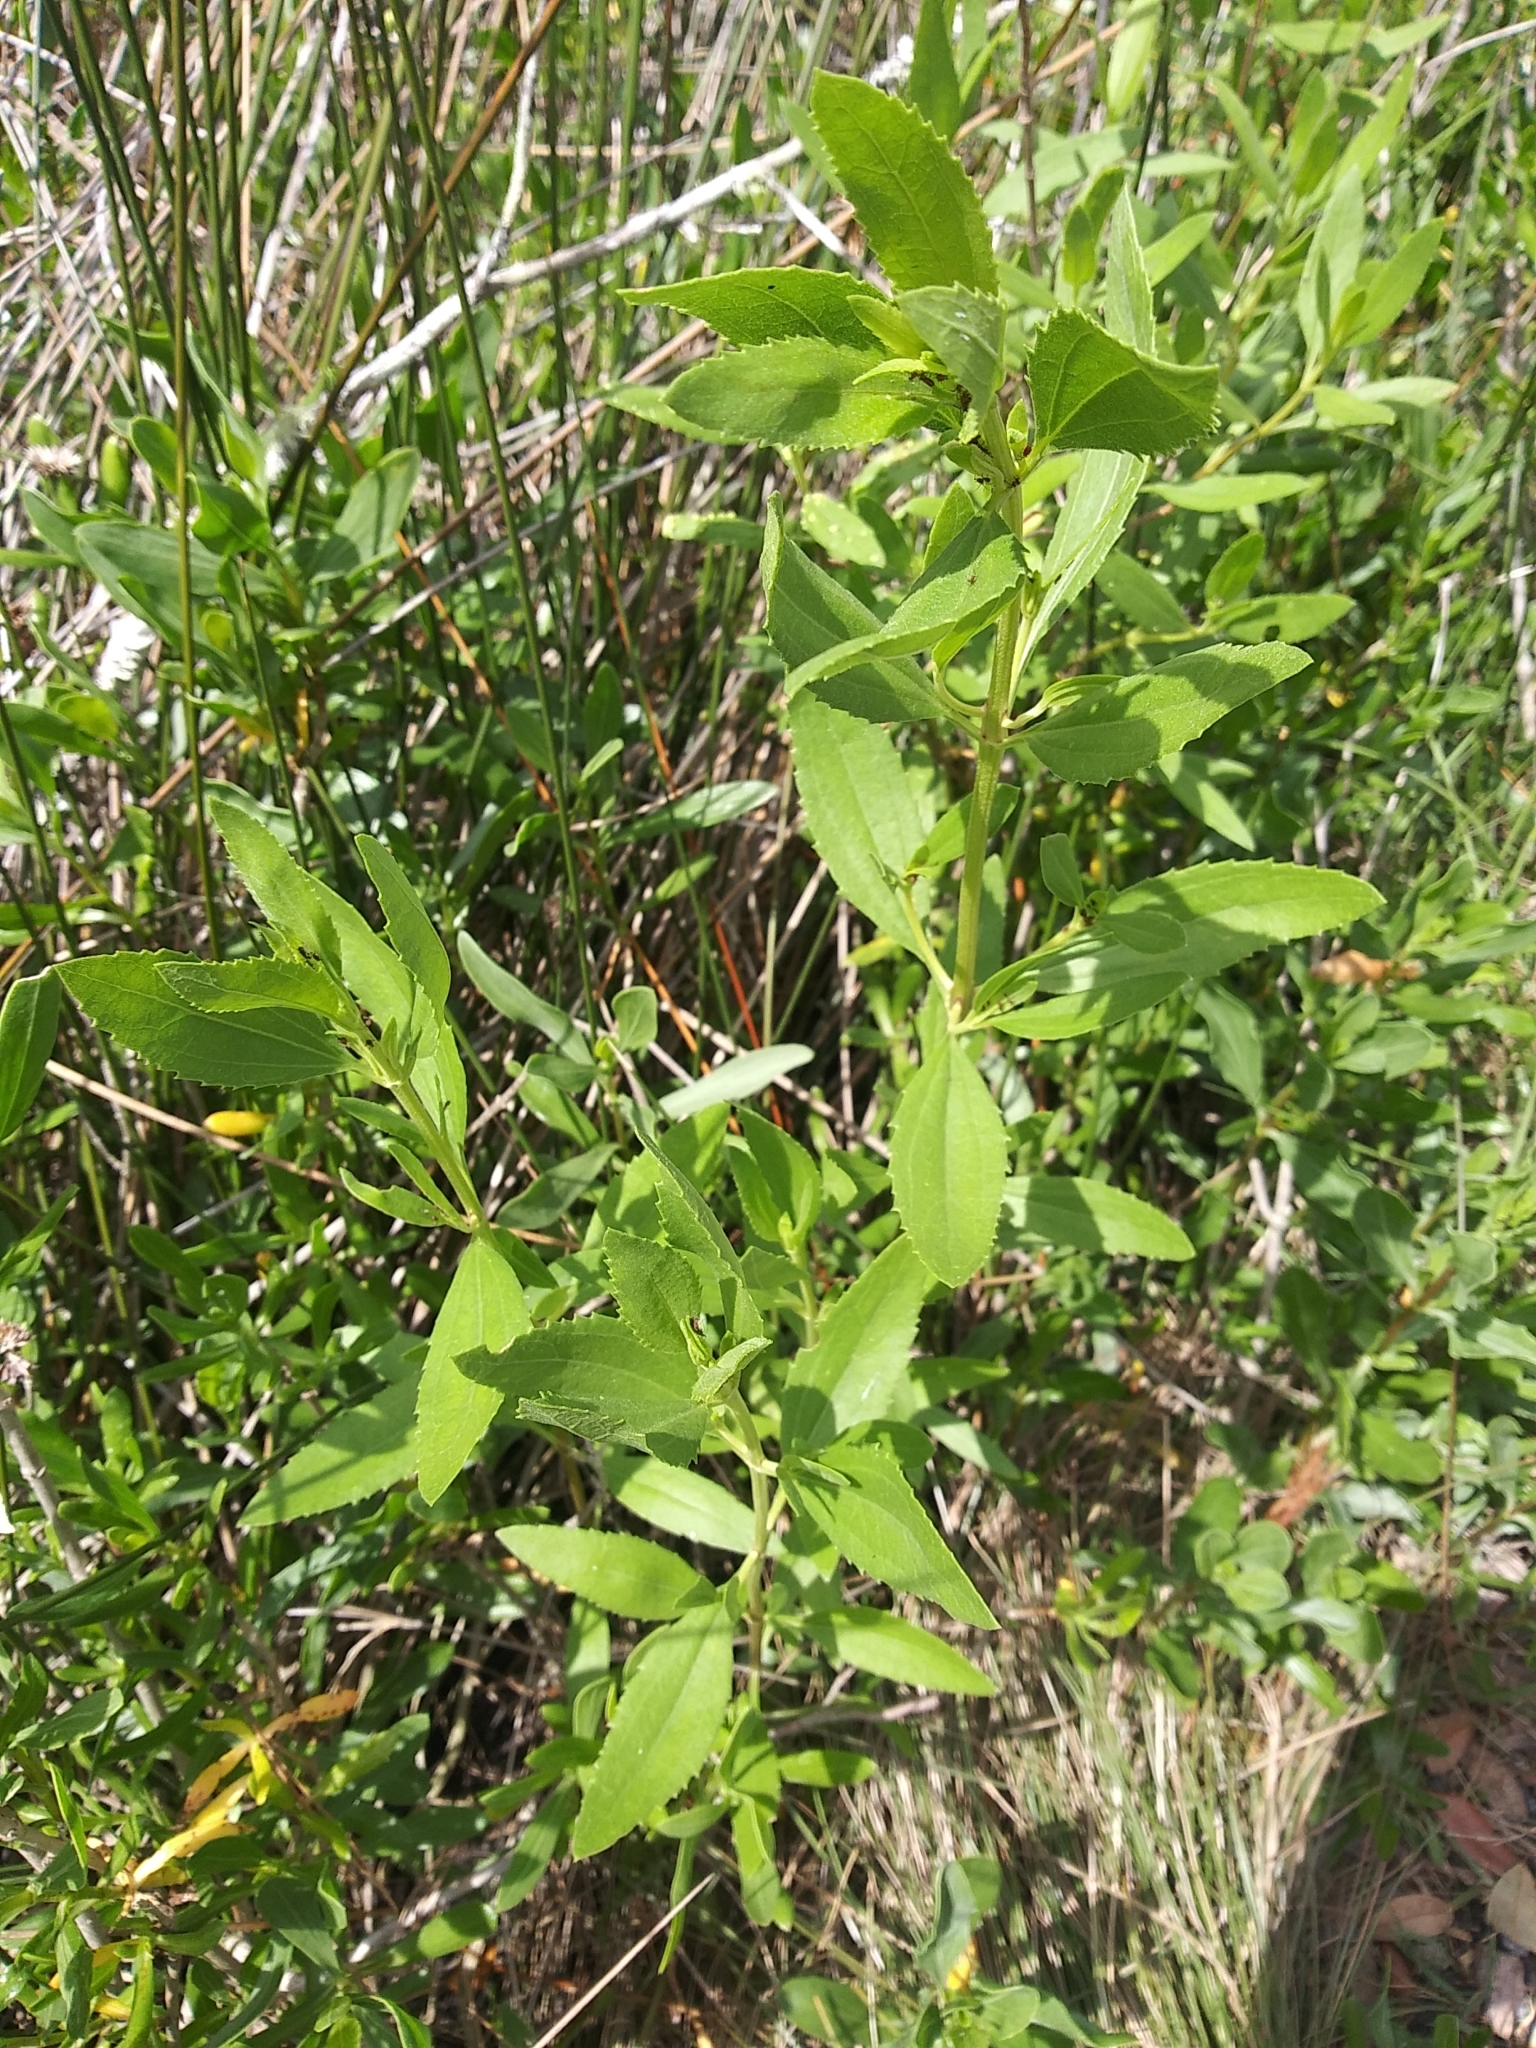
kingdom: Plantae
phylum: Tracheophyta
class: Magnoliopsida
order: Asterales
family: Asteraceae
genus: Iva
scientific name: Iva frutescens
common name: Big-leaved marsh-elder
